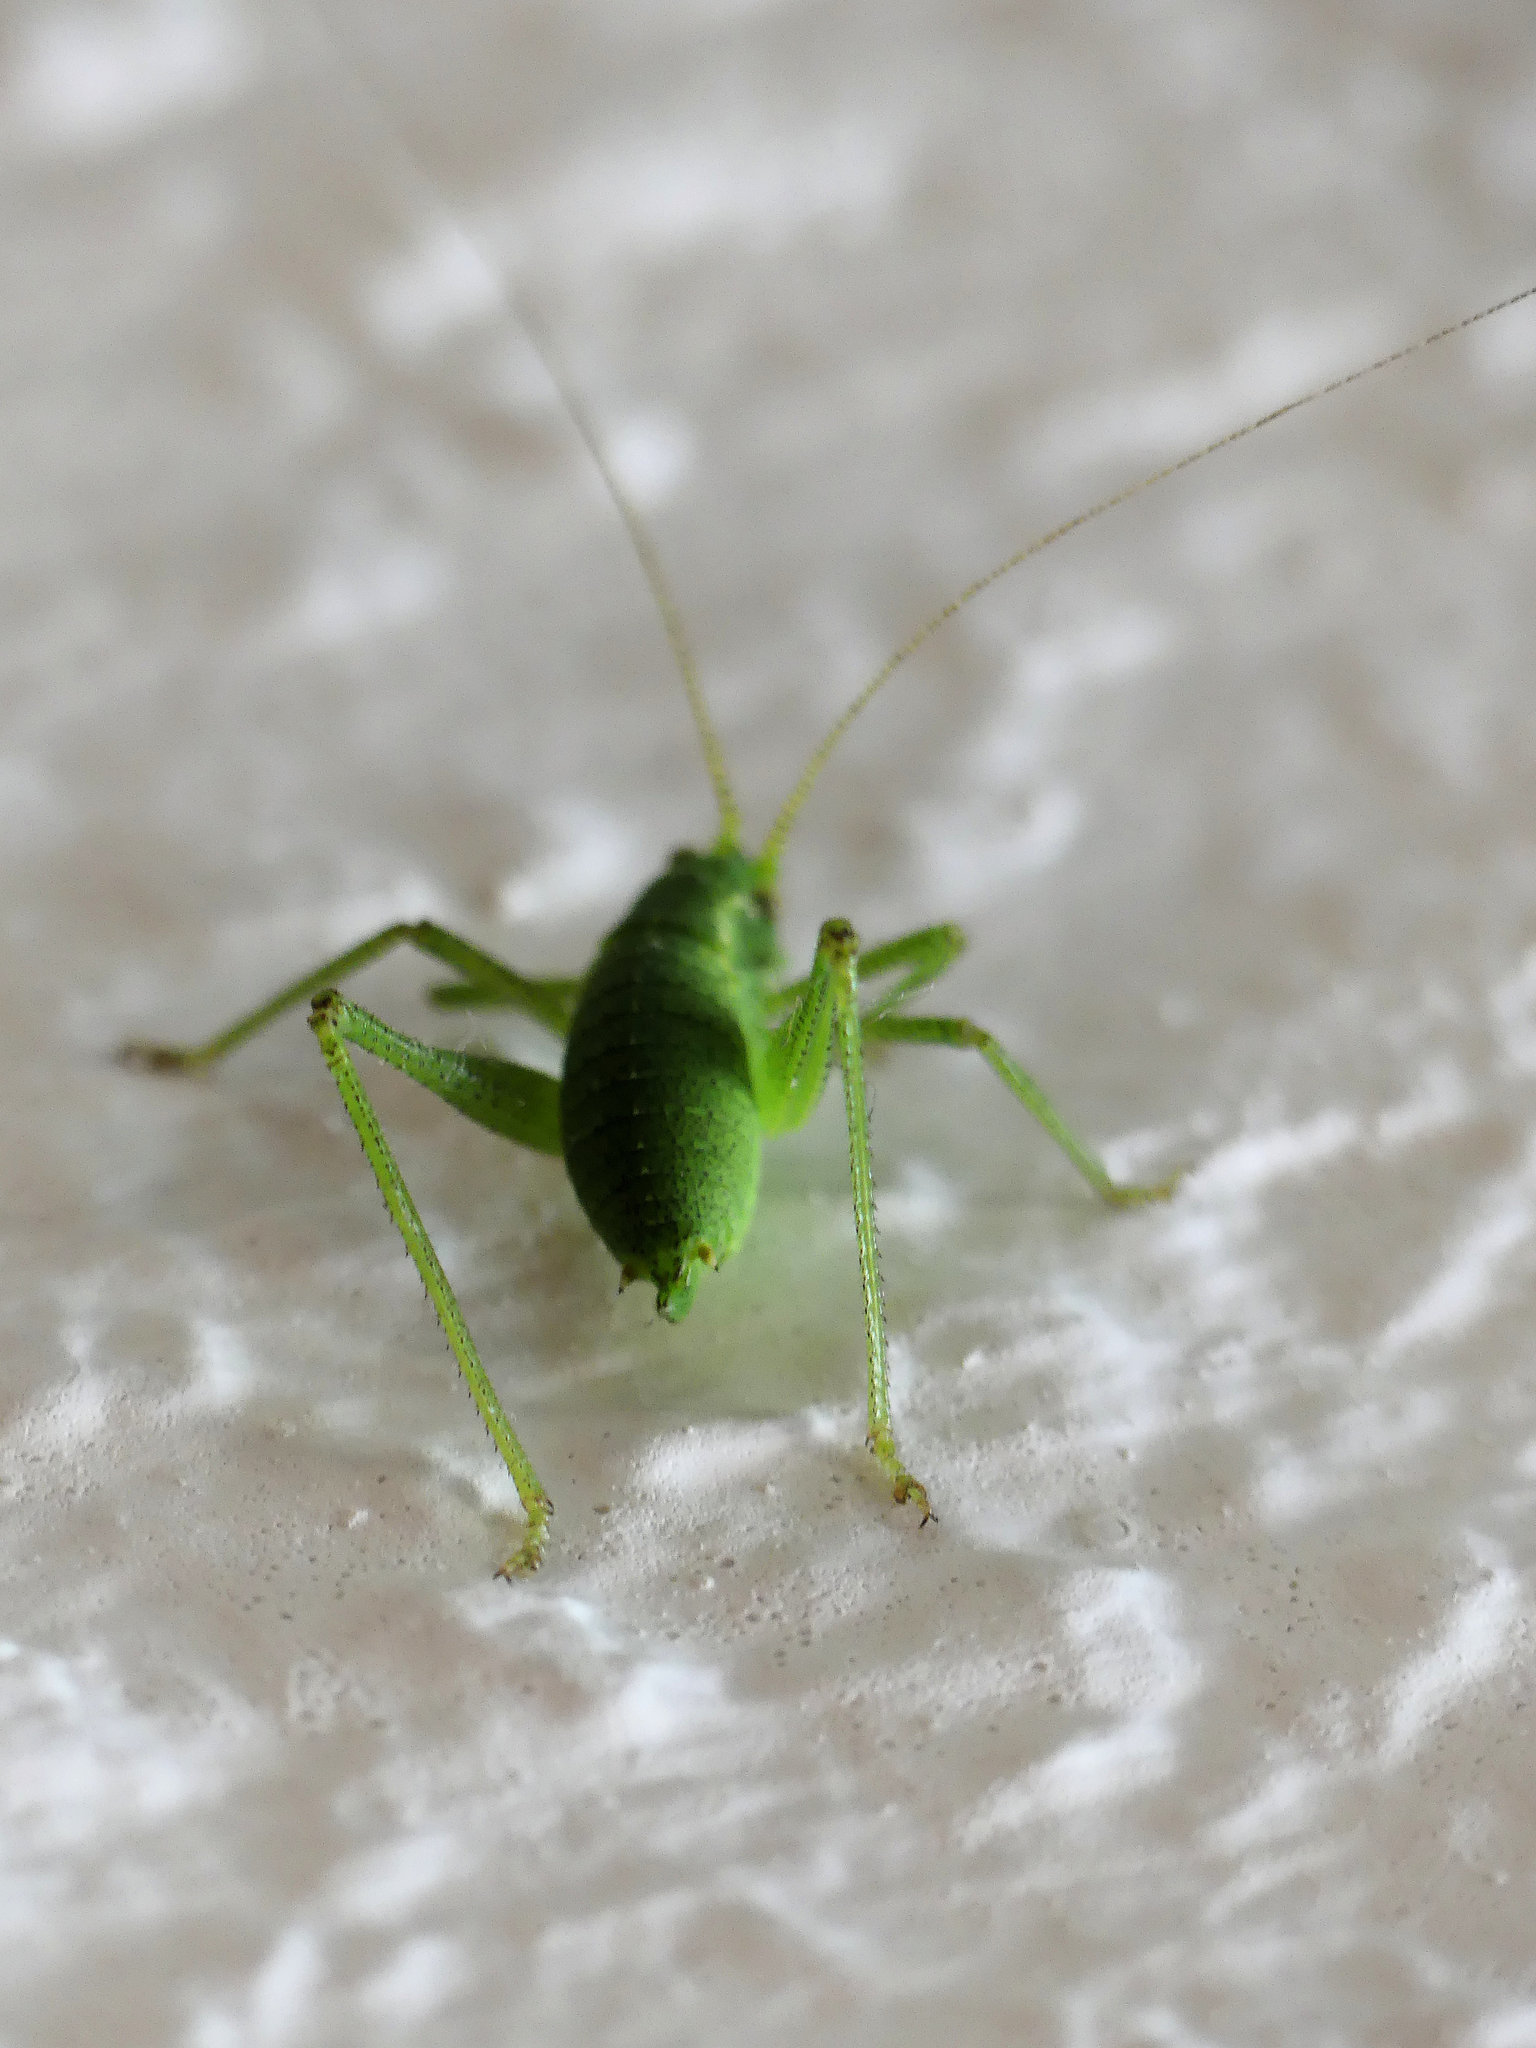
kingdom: Animalia
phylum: Arthropoda
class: Insecta
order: Orthoptera
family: Tettigoniidae
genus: Leptophyes
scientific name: Leptophyes punctatissima
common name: Speckled bush-cricket
